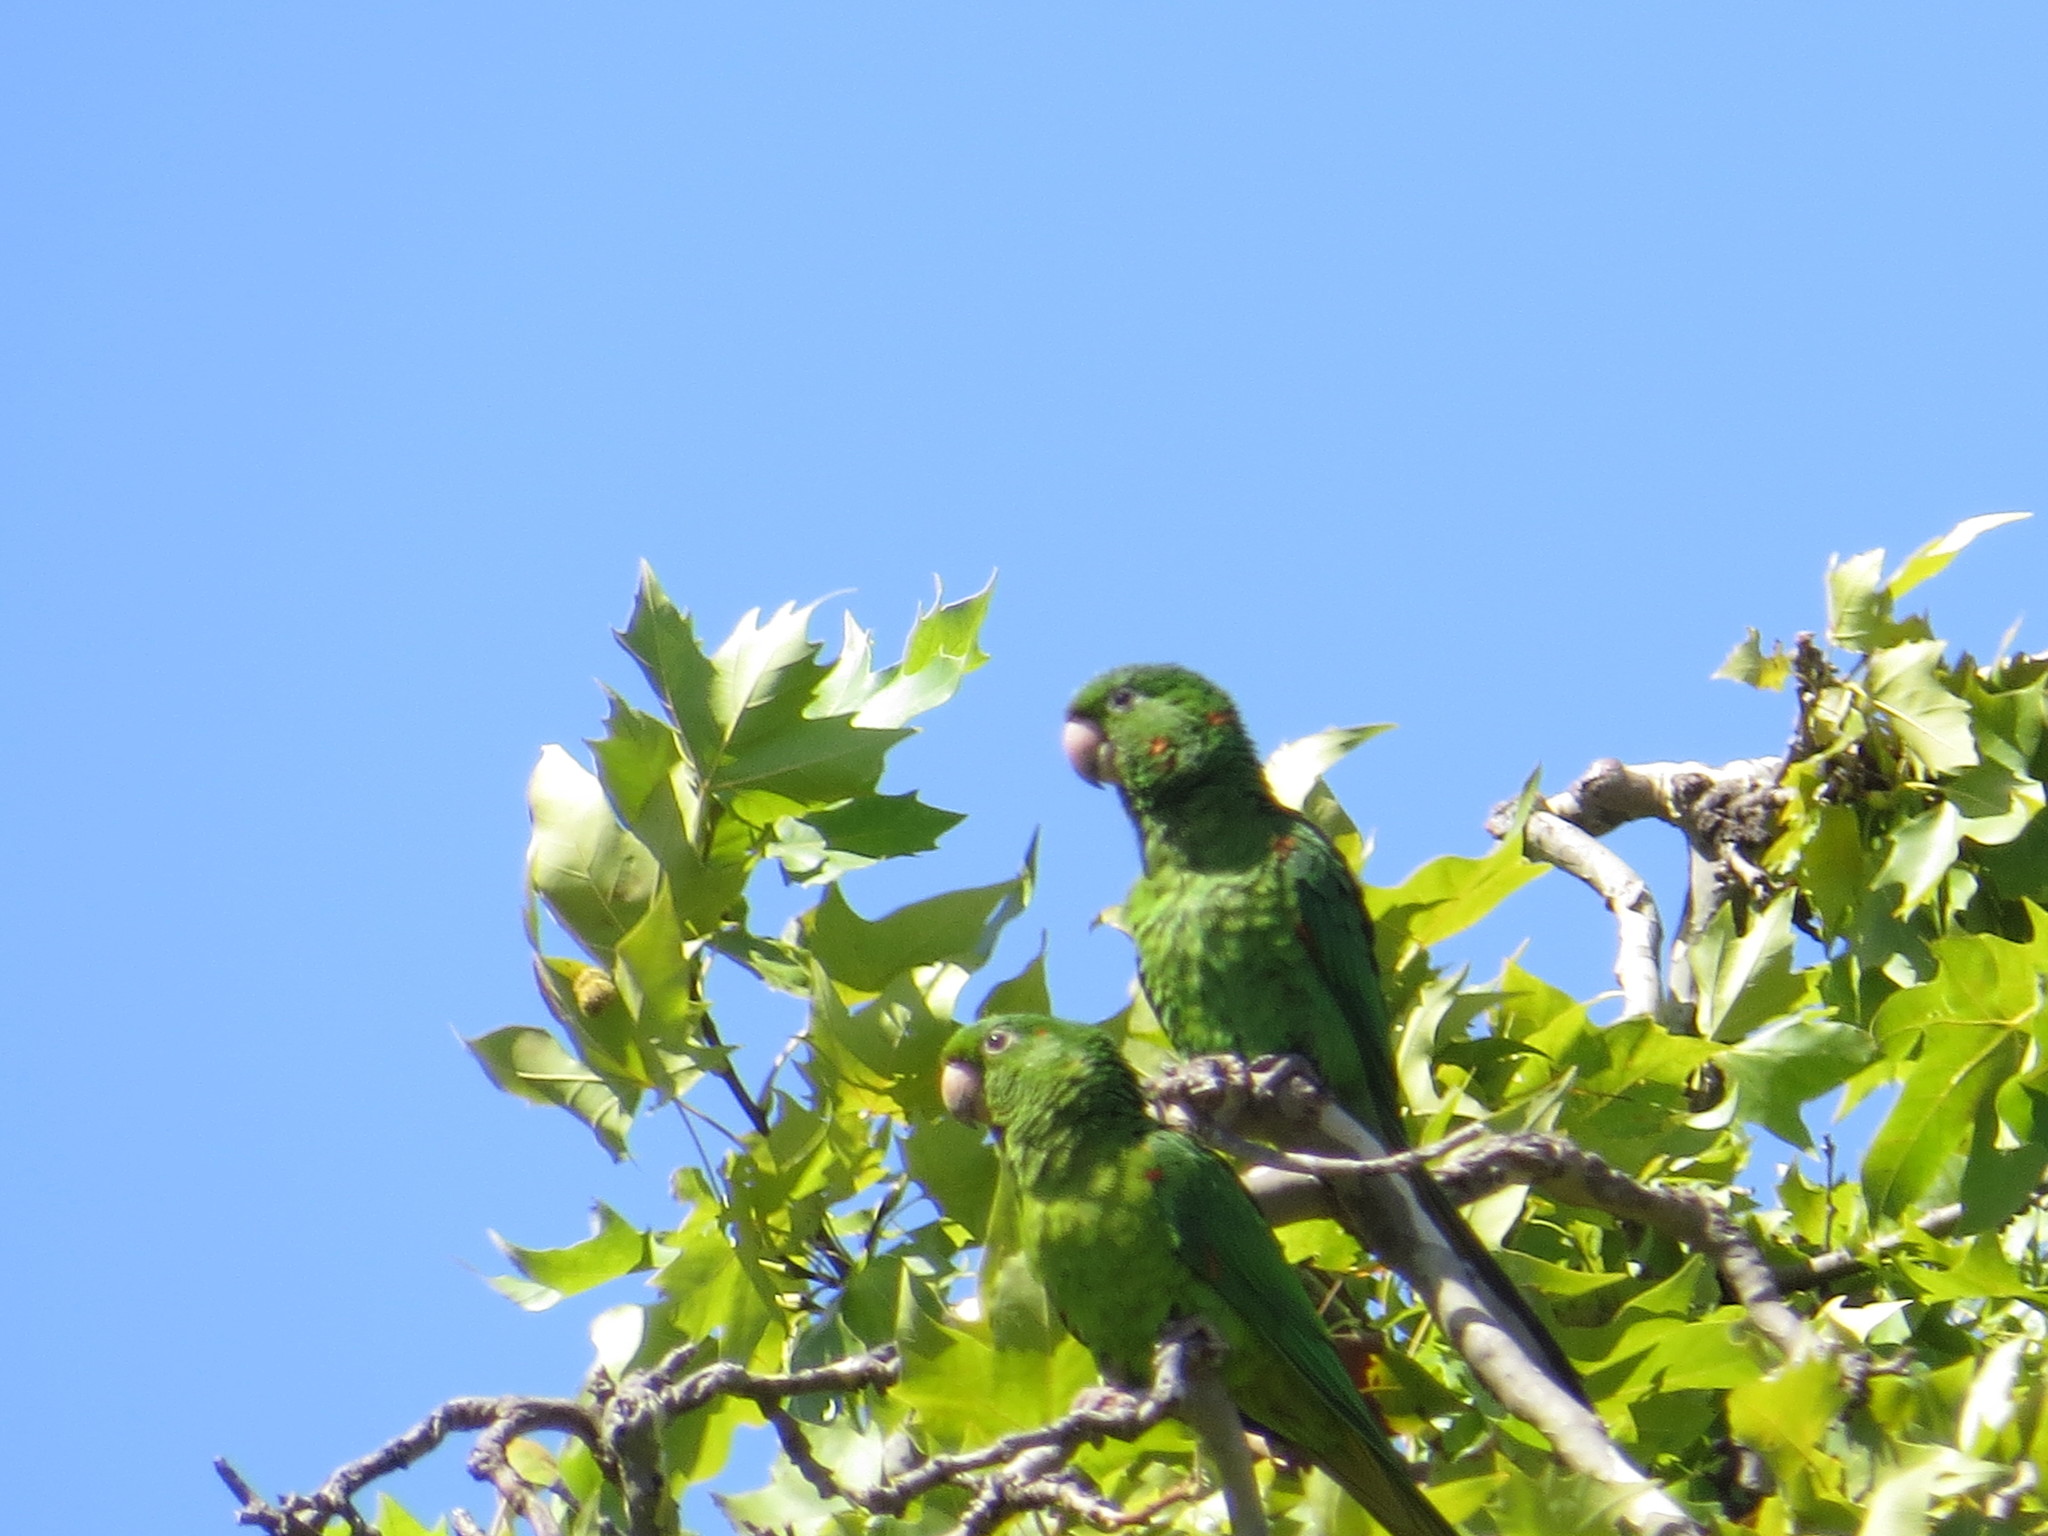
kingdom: Animalia
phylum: Chordata
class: Aves
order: Psittaciformes
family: Psittacidae
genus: Aratinga
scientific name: Aratinga leucophthalma
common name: White-eyed parakeet
